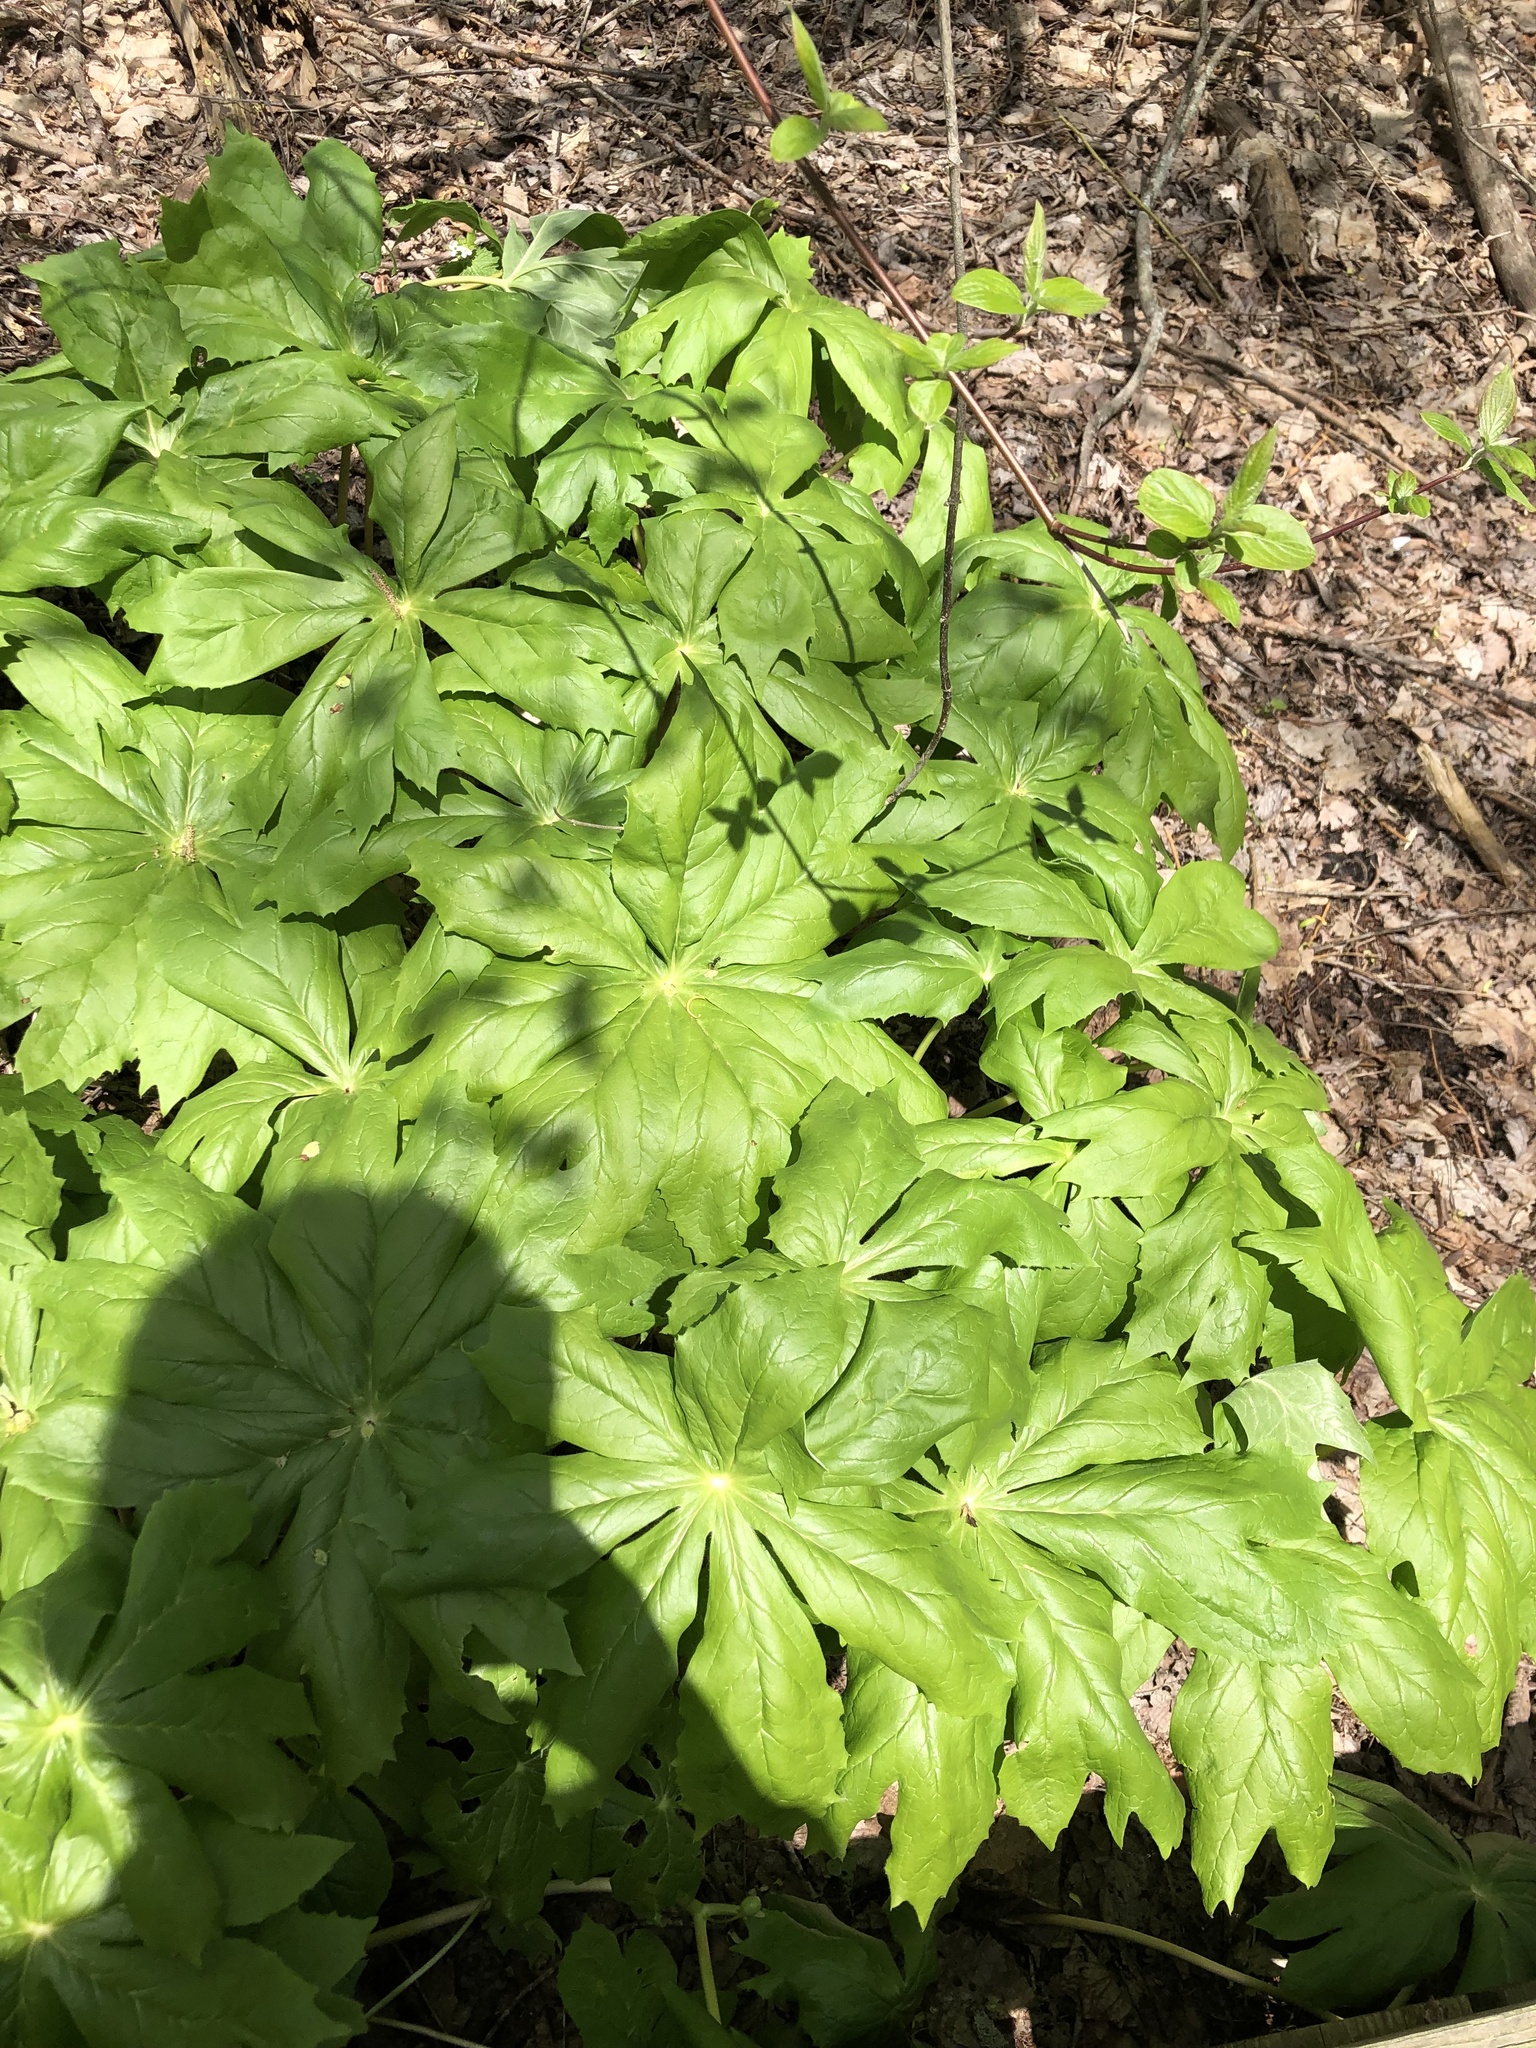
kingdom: Plantae
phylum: Tracheophyta
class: Magnoliopsida
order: Ranunculales
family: Berberidaceae
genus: Podophyllum
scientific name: Podophyllum peltatum
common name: Wild mandrake
